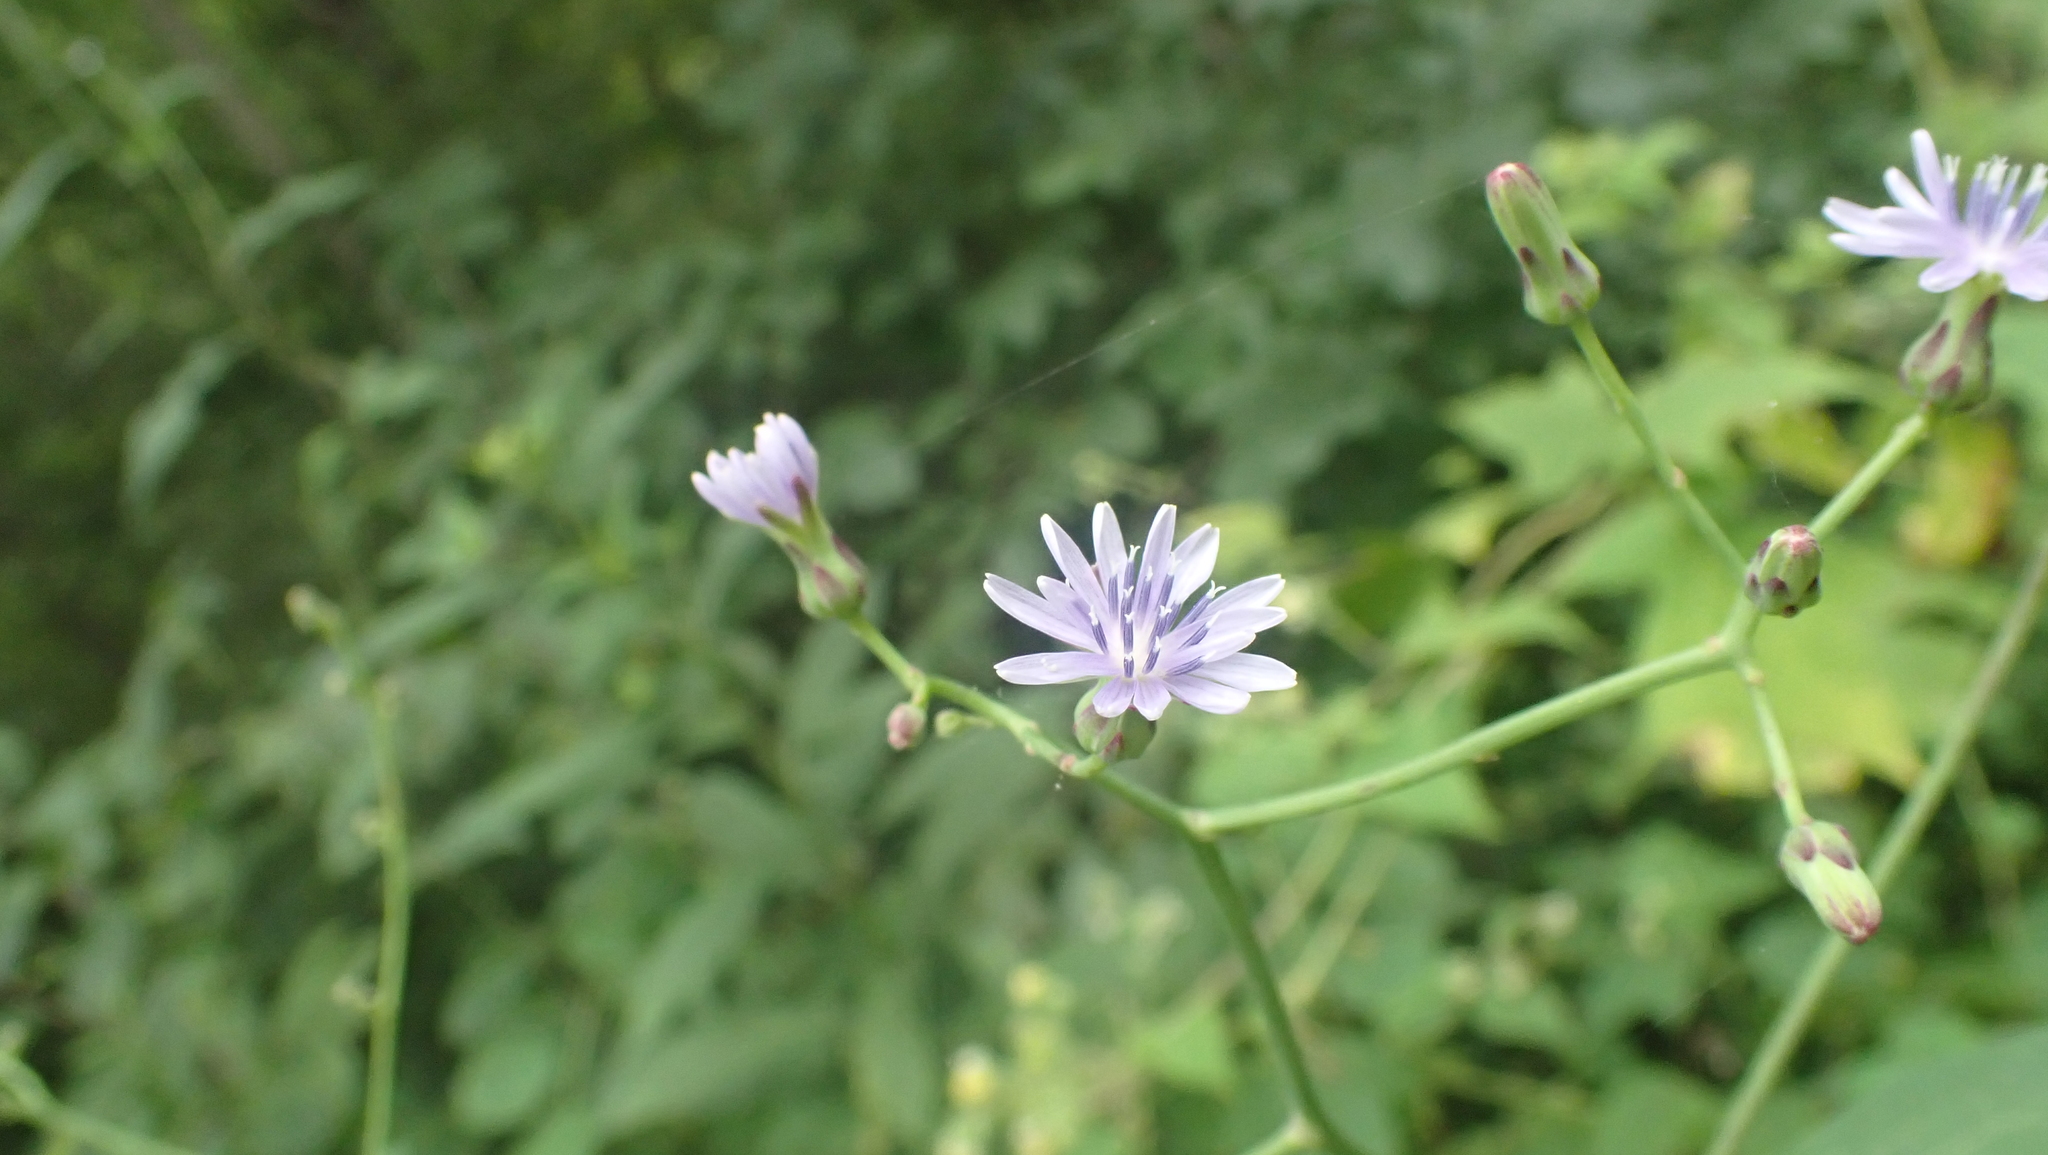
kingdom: Plantae
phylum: Tracheophyta
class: Magnoliopsida
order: Asterales
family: Asteraceae
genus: Lactuca
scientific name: Lactuca floridana
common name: Woodland lettuce
